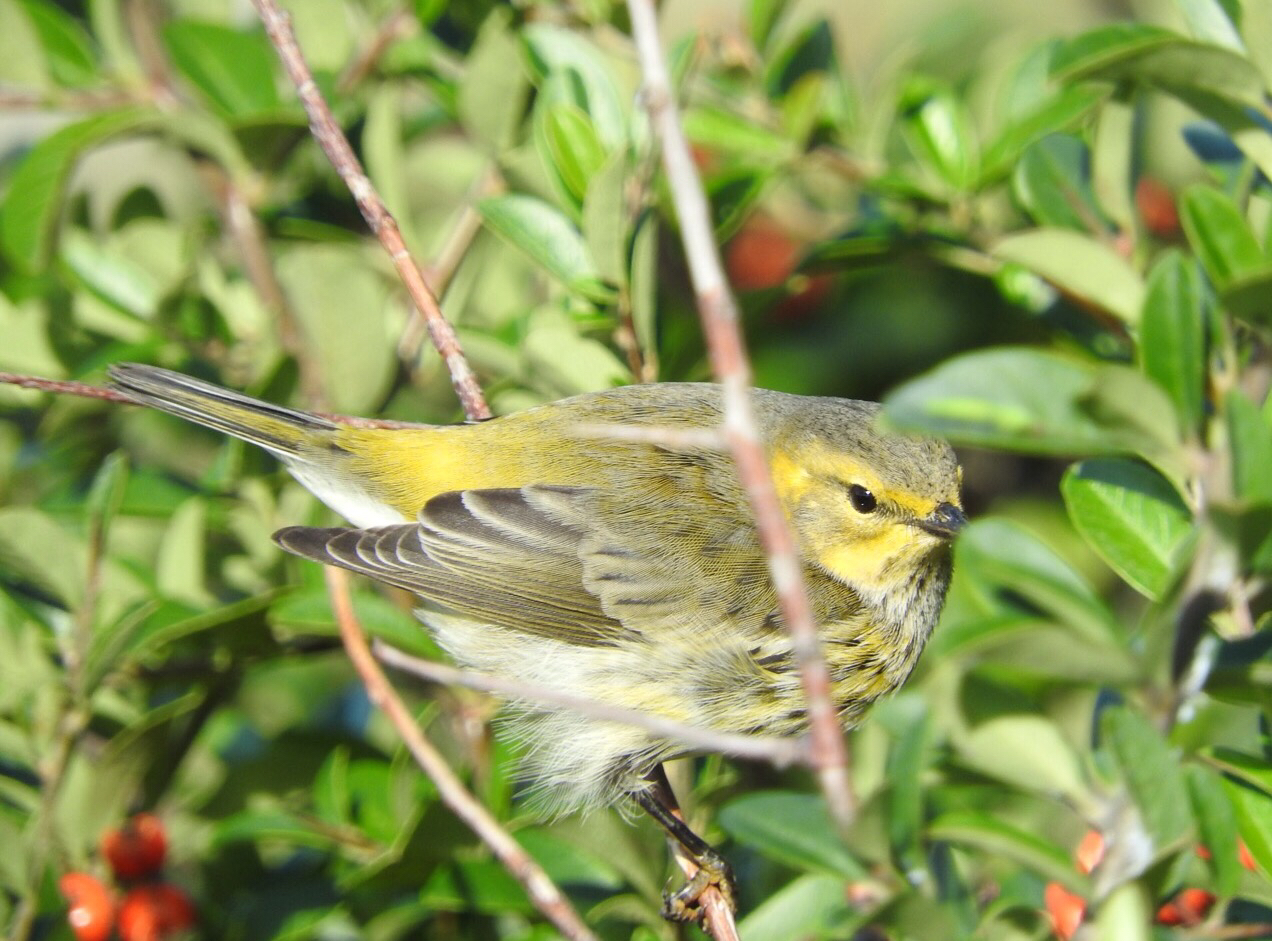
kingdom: Animalia
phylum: Chordata
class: Aves
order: Passeriformes
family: Parulidae
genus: Setophaga
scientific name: Setophaga tigrina
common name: Cape may warbler
